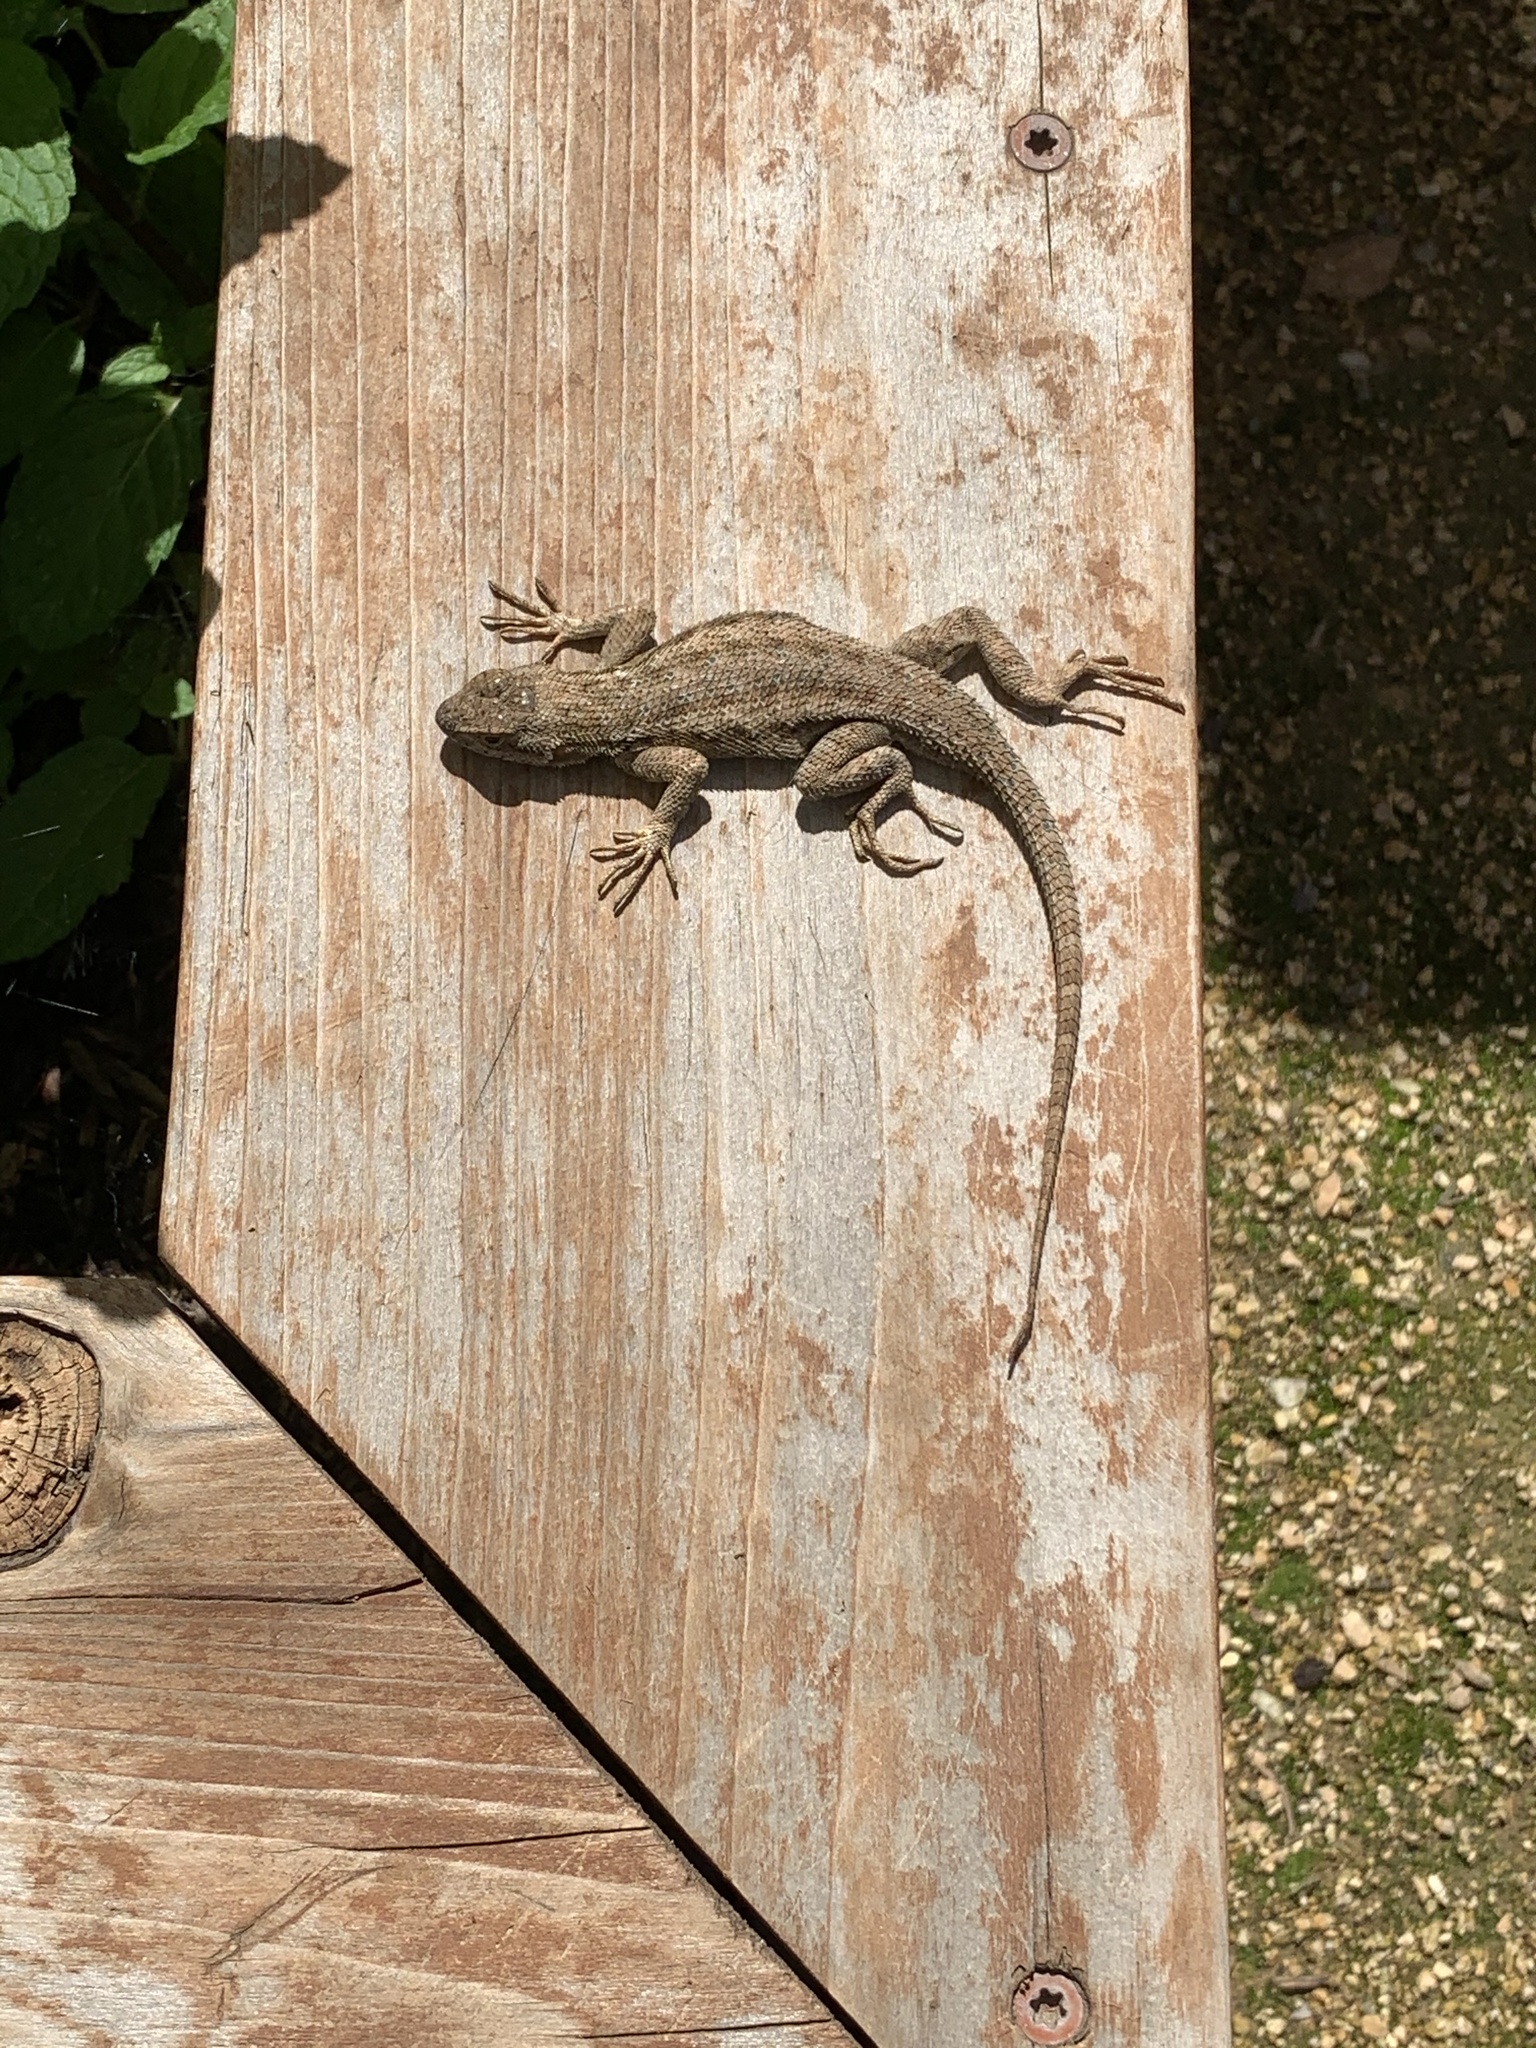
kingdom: Animalia
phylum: Chordata
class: Squamata
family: Phrynosomatidae
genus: Sceloporus
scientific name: Sceloporus occidentalis
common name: Western fence lizard
